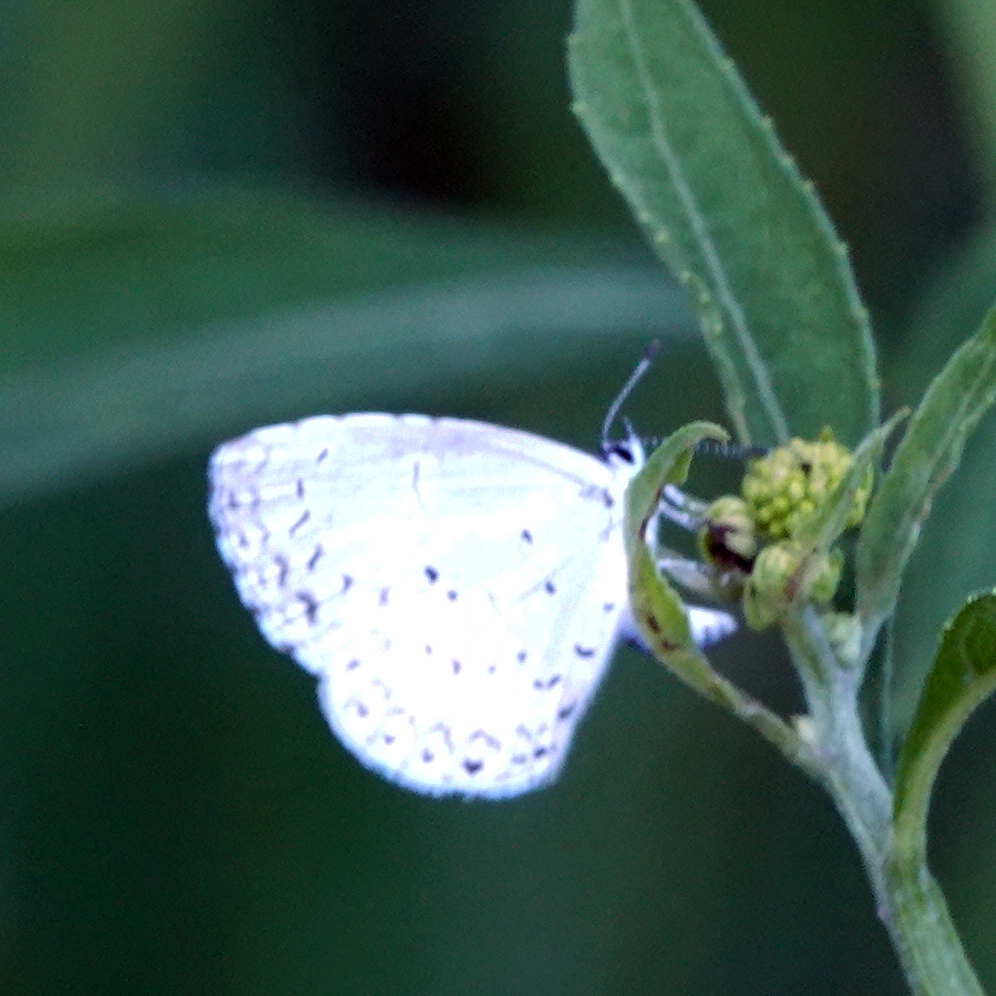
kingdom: Animalia
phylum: Arthropoda
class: Insecta
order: Lepidoptera
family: Lycaenidae
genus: Cyaniris
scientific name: Cyaniris neglecta
